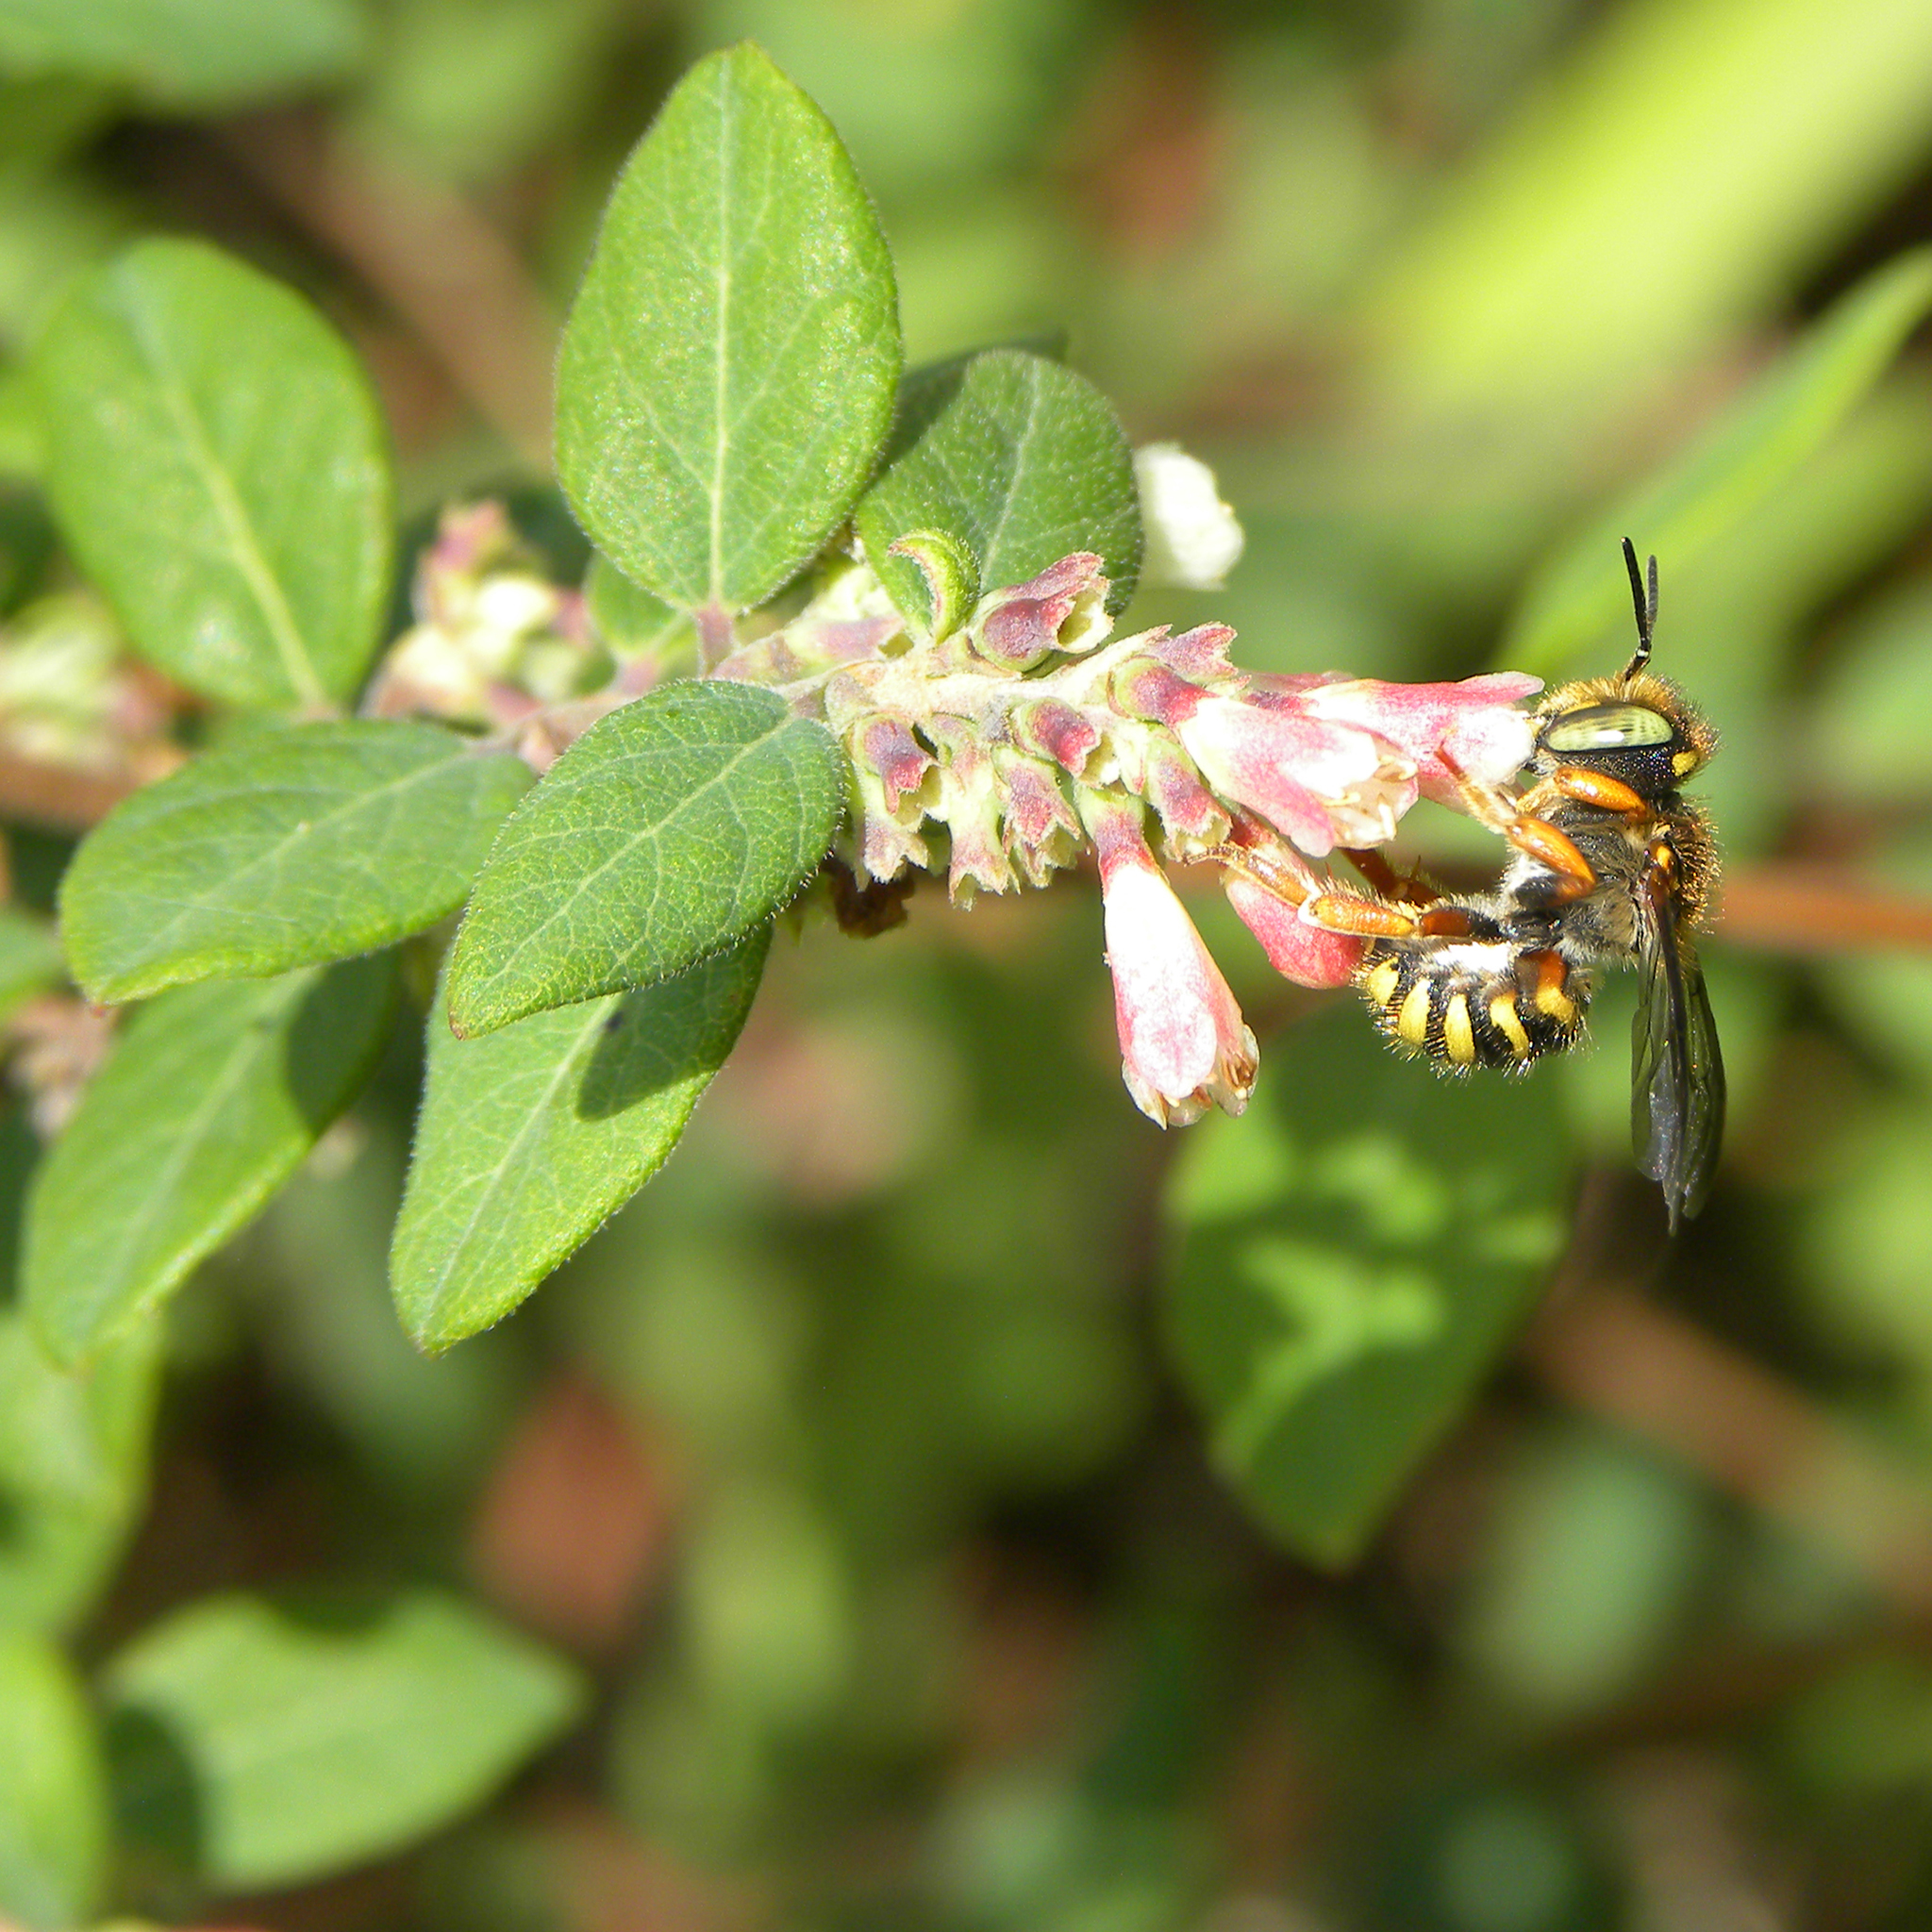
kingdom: Animalia
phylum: Arthropoda
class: Insecta
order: Hymenoptera
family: Megachilidae
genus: Anthidium
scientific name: Anthidium oblongatum
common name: Oblong wool carder bee
